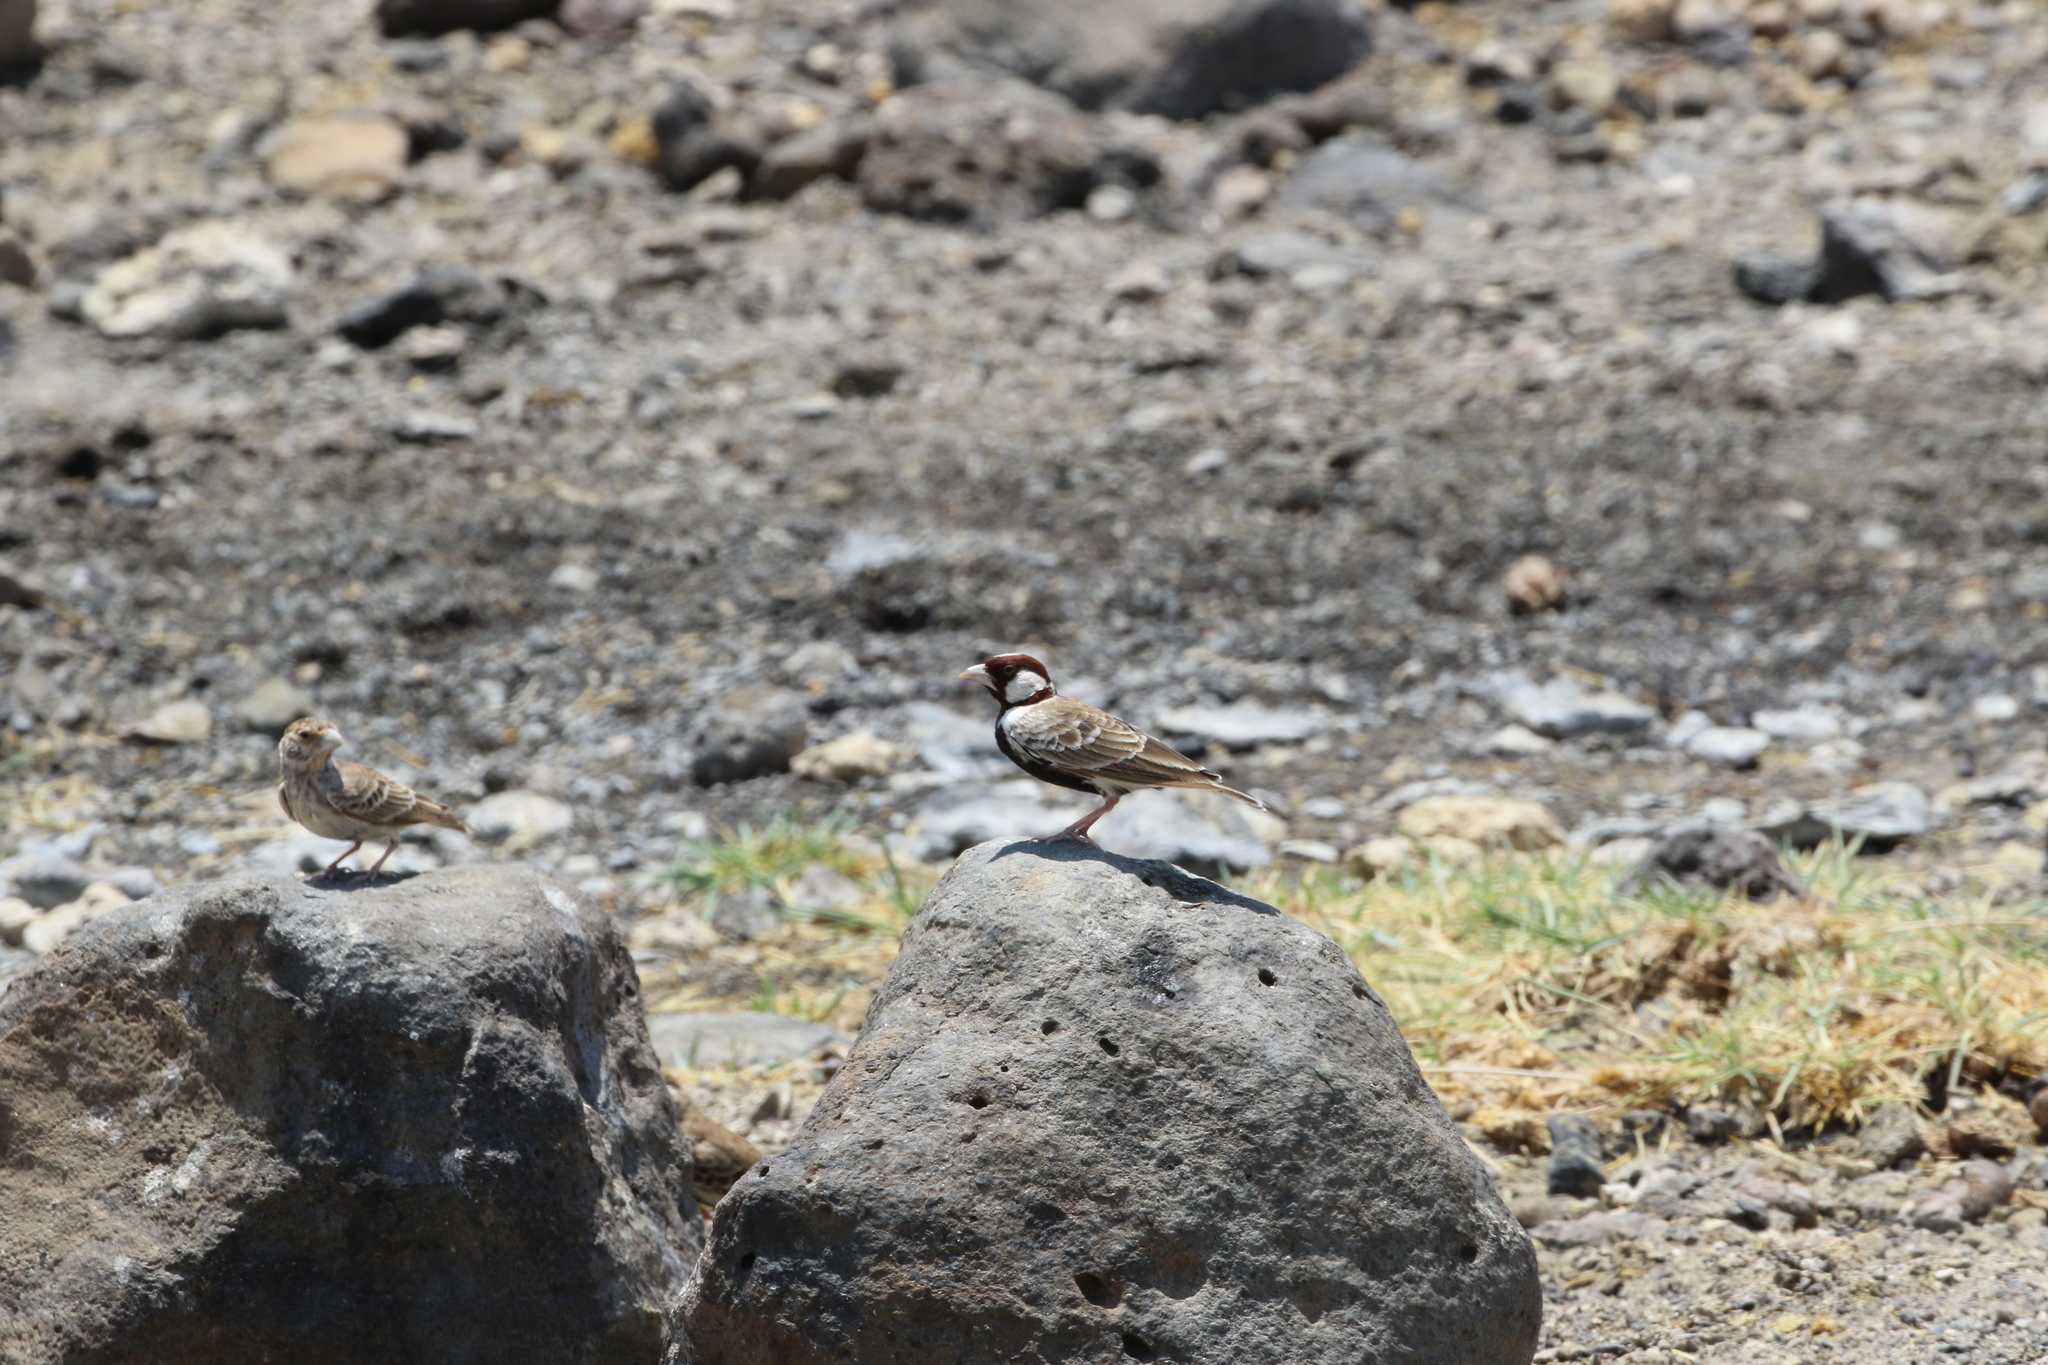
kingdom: Animalia
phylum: Chordata
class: Aves
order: Passeriformes
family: Alaudidae
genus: Eremopterix
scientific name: Eremopterix signatus
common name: Chestnut-headed sparrow-lark
